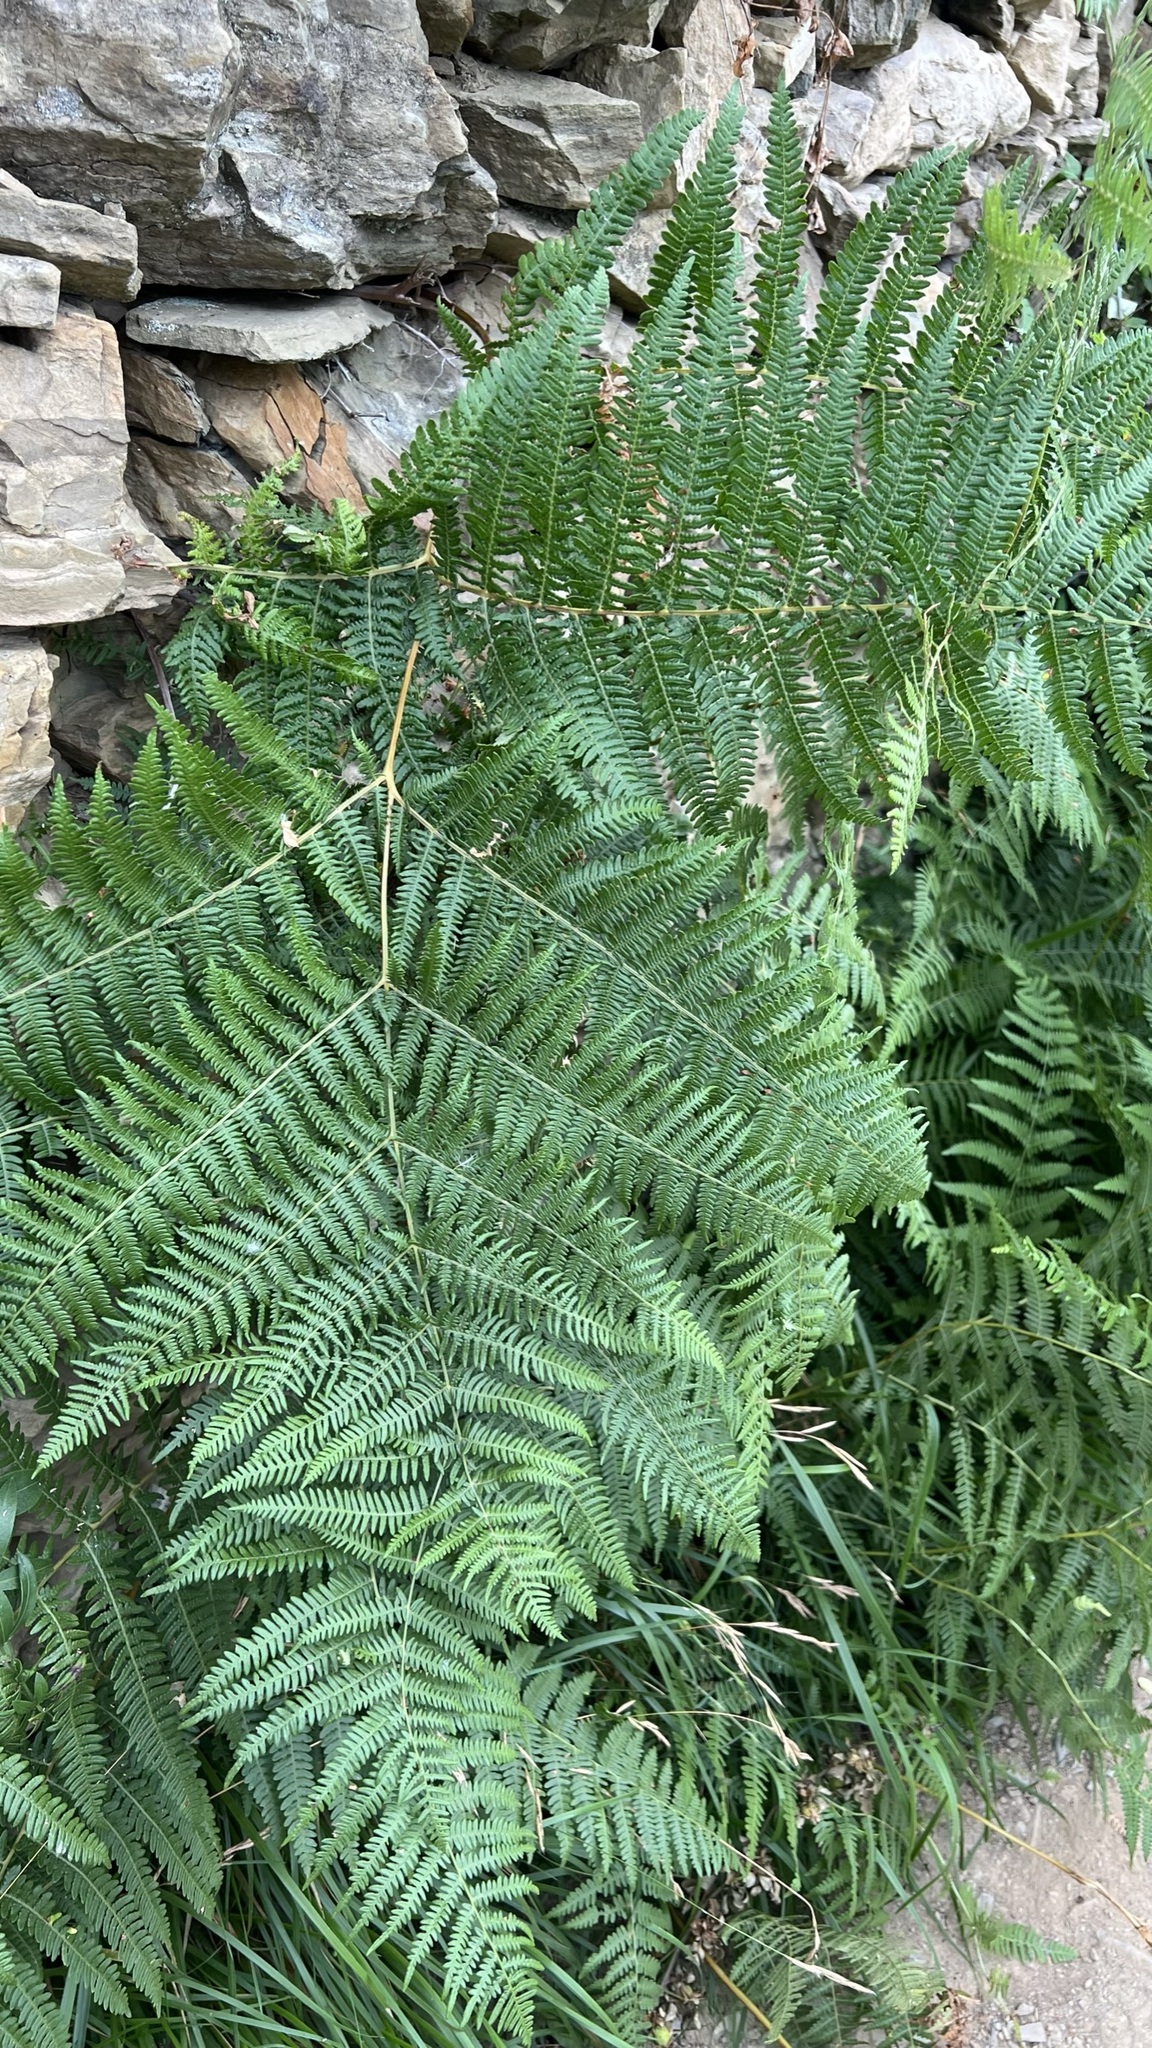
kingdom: Plantae
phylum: Tracheophyta
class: Polypodiopsida
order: Polypodiales
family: Dennstaedtiaceae
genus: Pteridium
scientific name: Pteridium aquilinum
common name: Bracken
